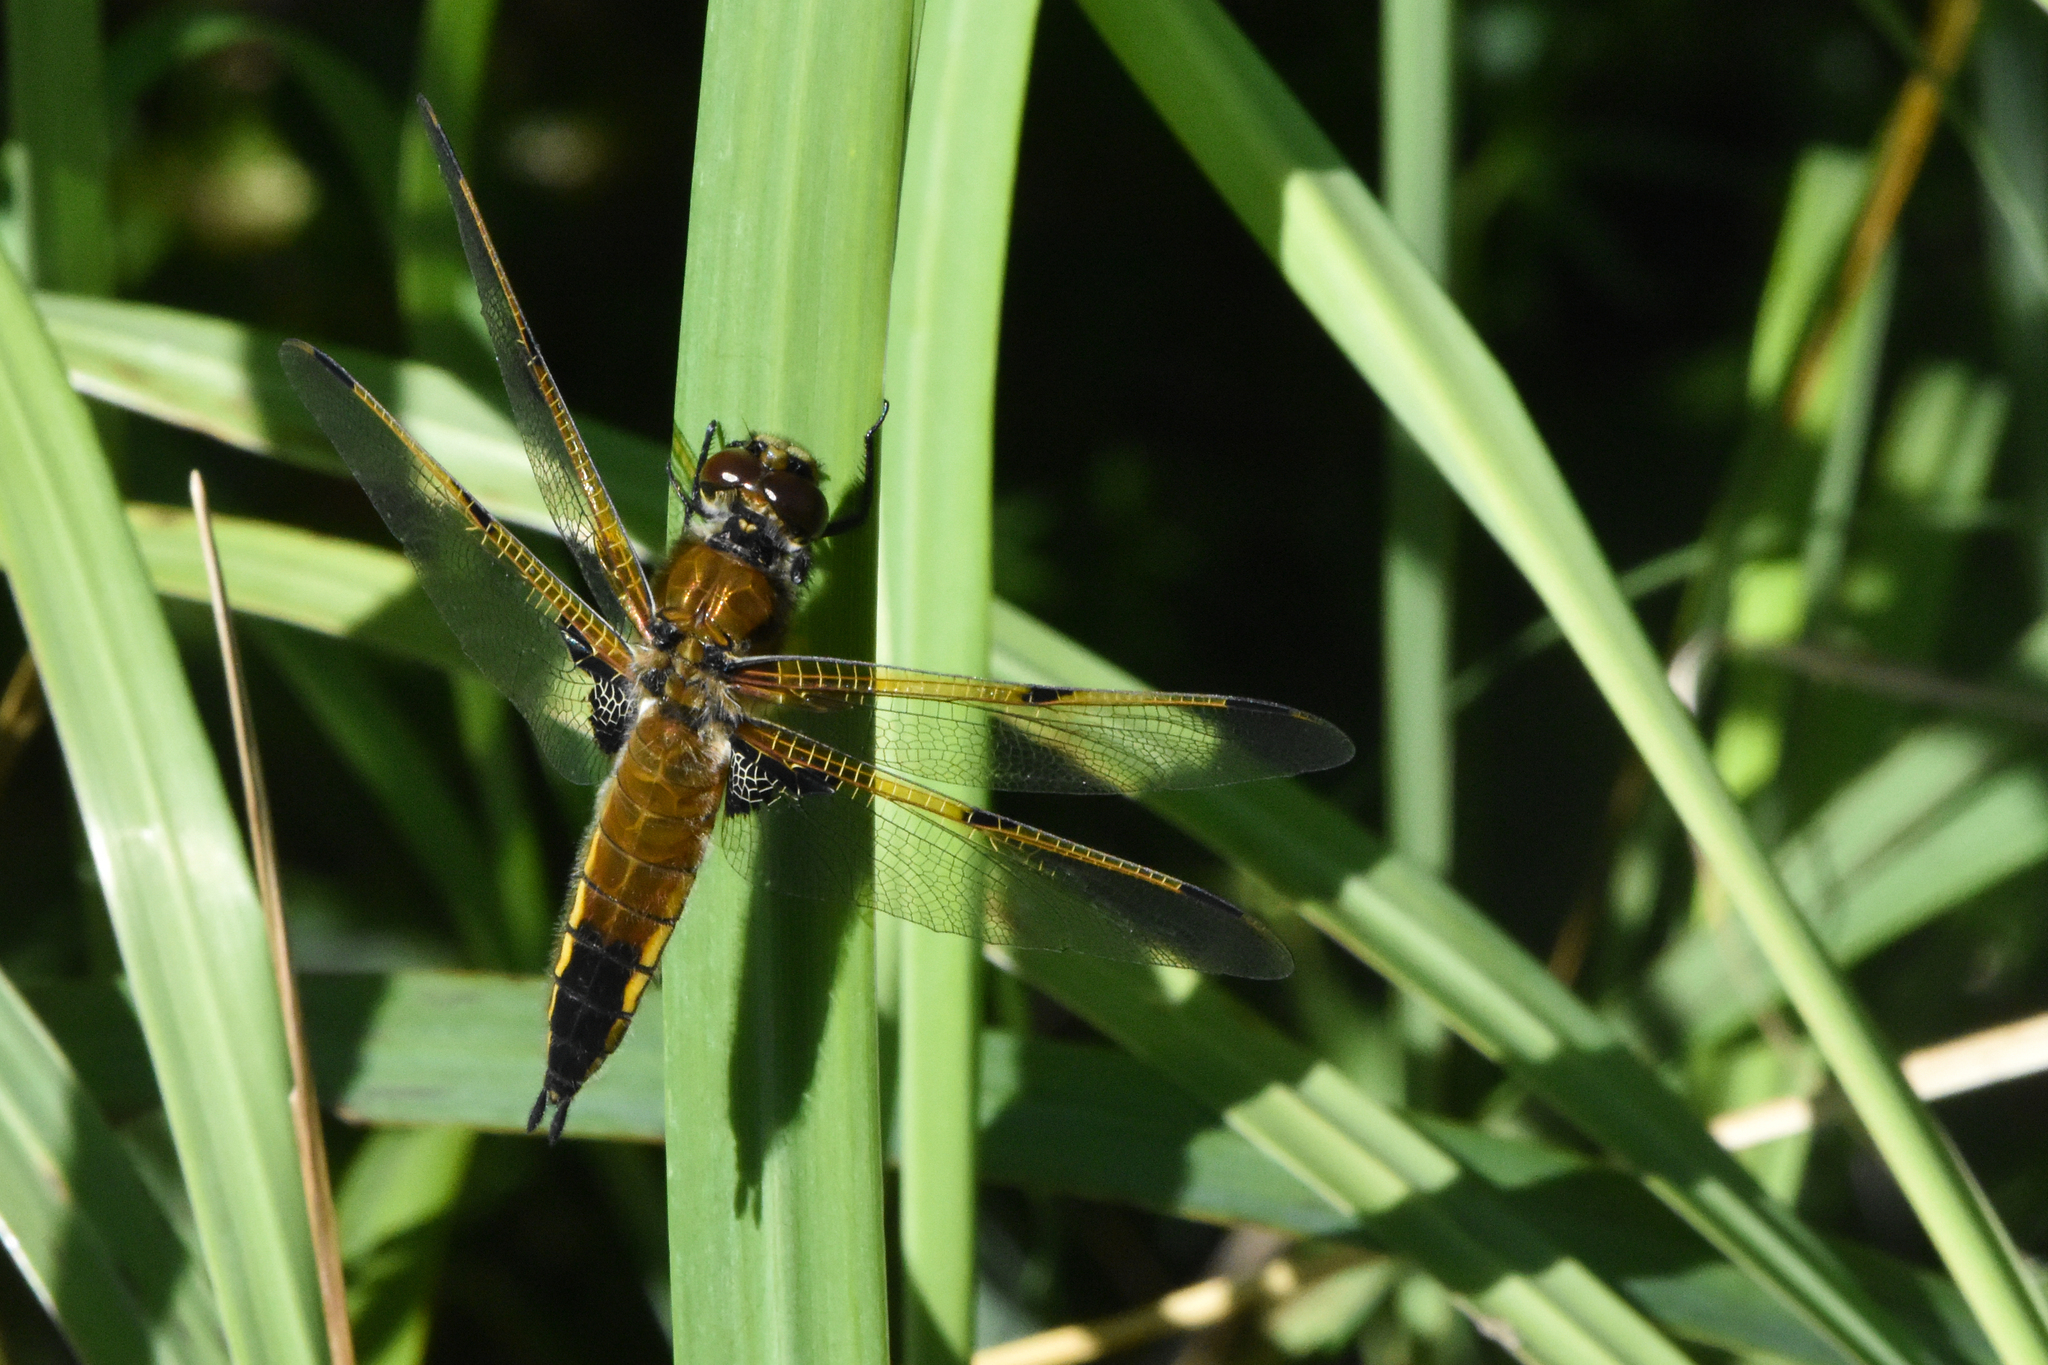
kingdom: Animalia
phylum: Arthropoda
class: Insecta
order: Odonata
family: Libellulidae
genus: Libellula
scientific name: Libellula quadrimaculata
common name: Four-spotted chaser
